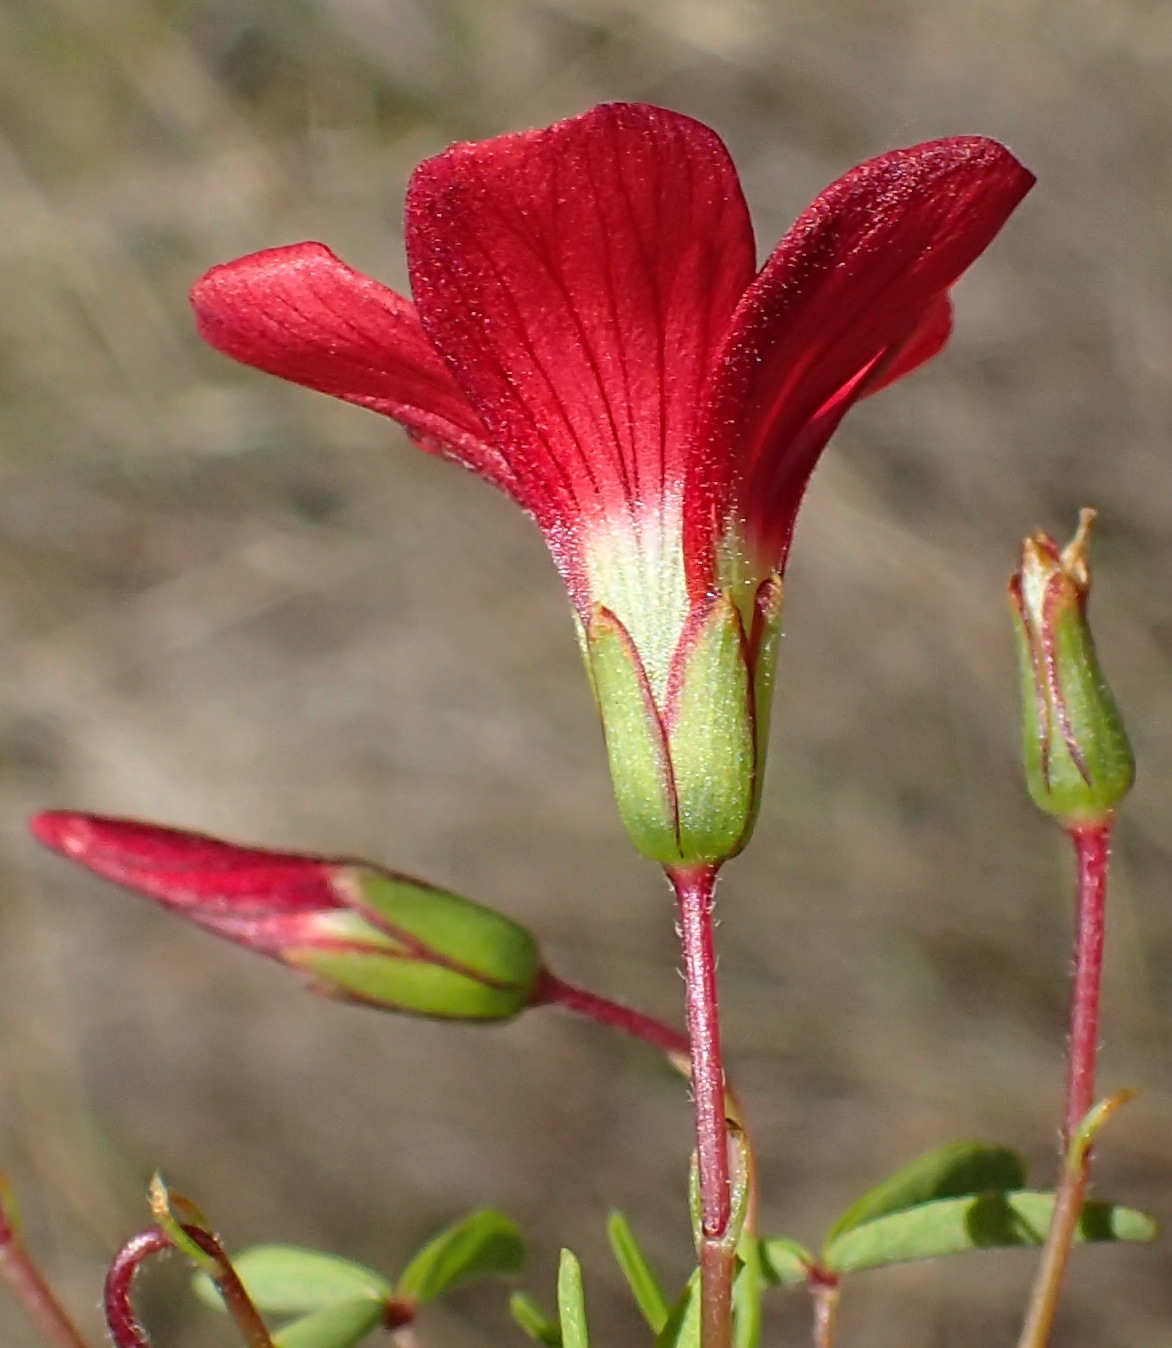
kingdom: Plantae
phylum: Tracheophyta
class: Magnoliopsida
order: Oxalidales
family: Oxalidaceae
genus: Oxalis
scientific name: Oxalis pendulifolia
